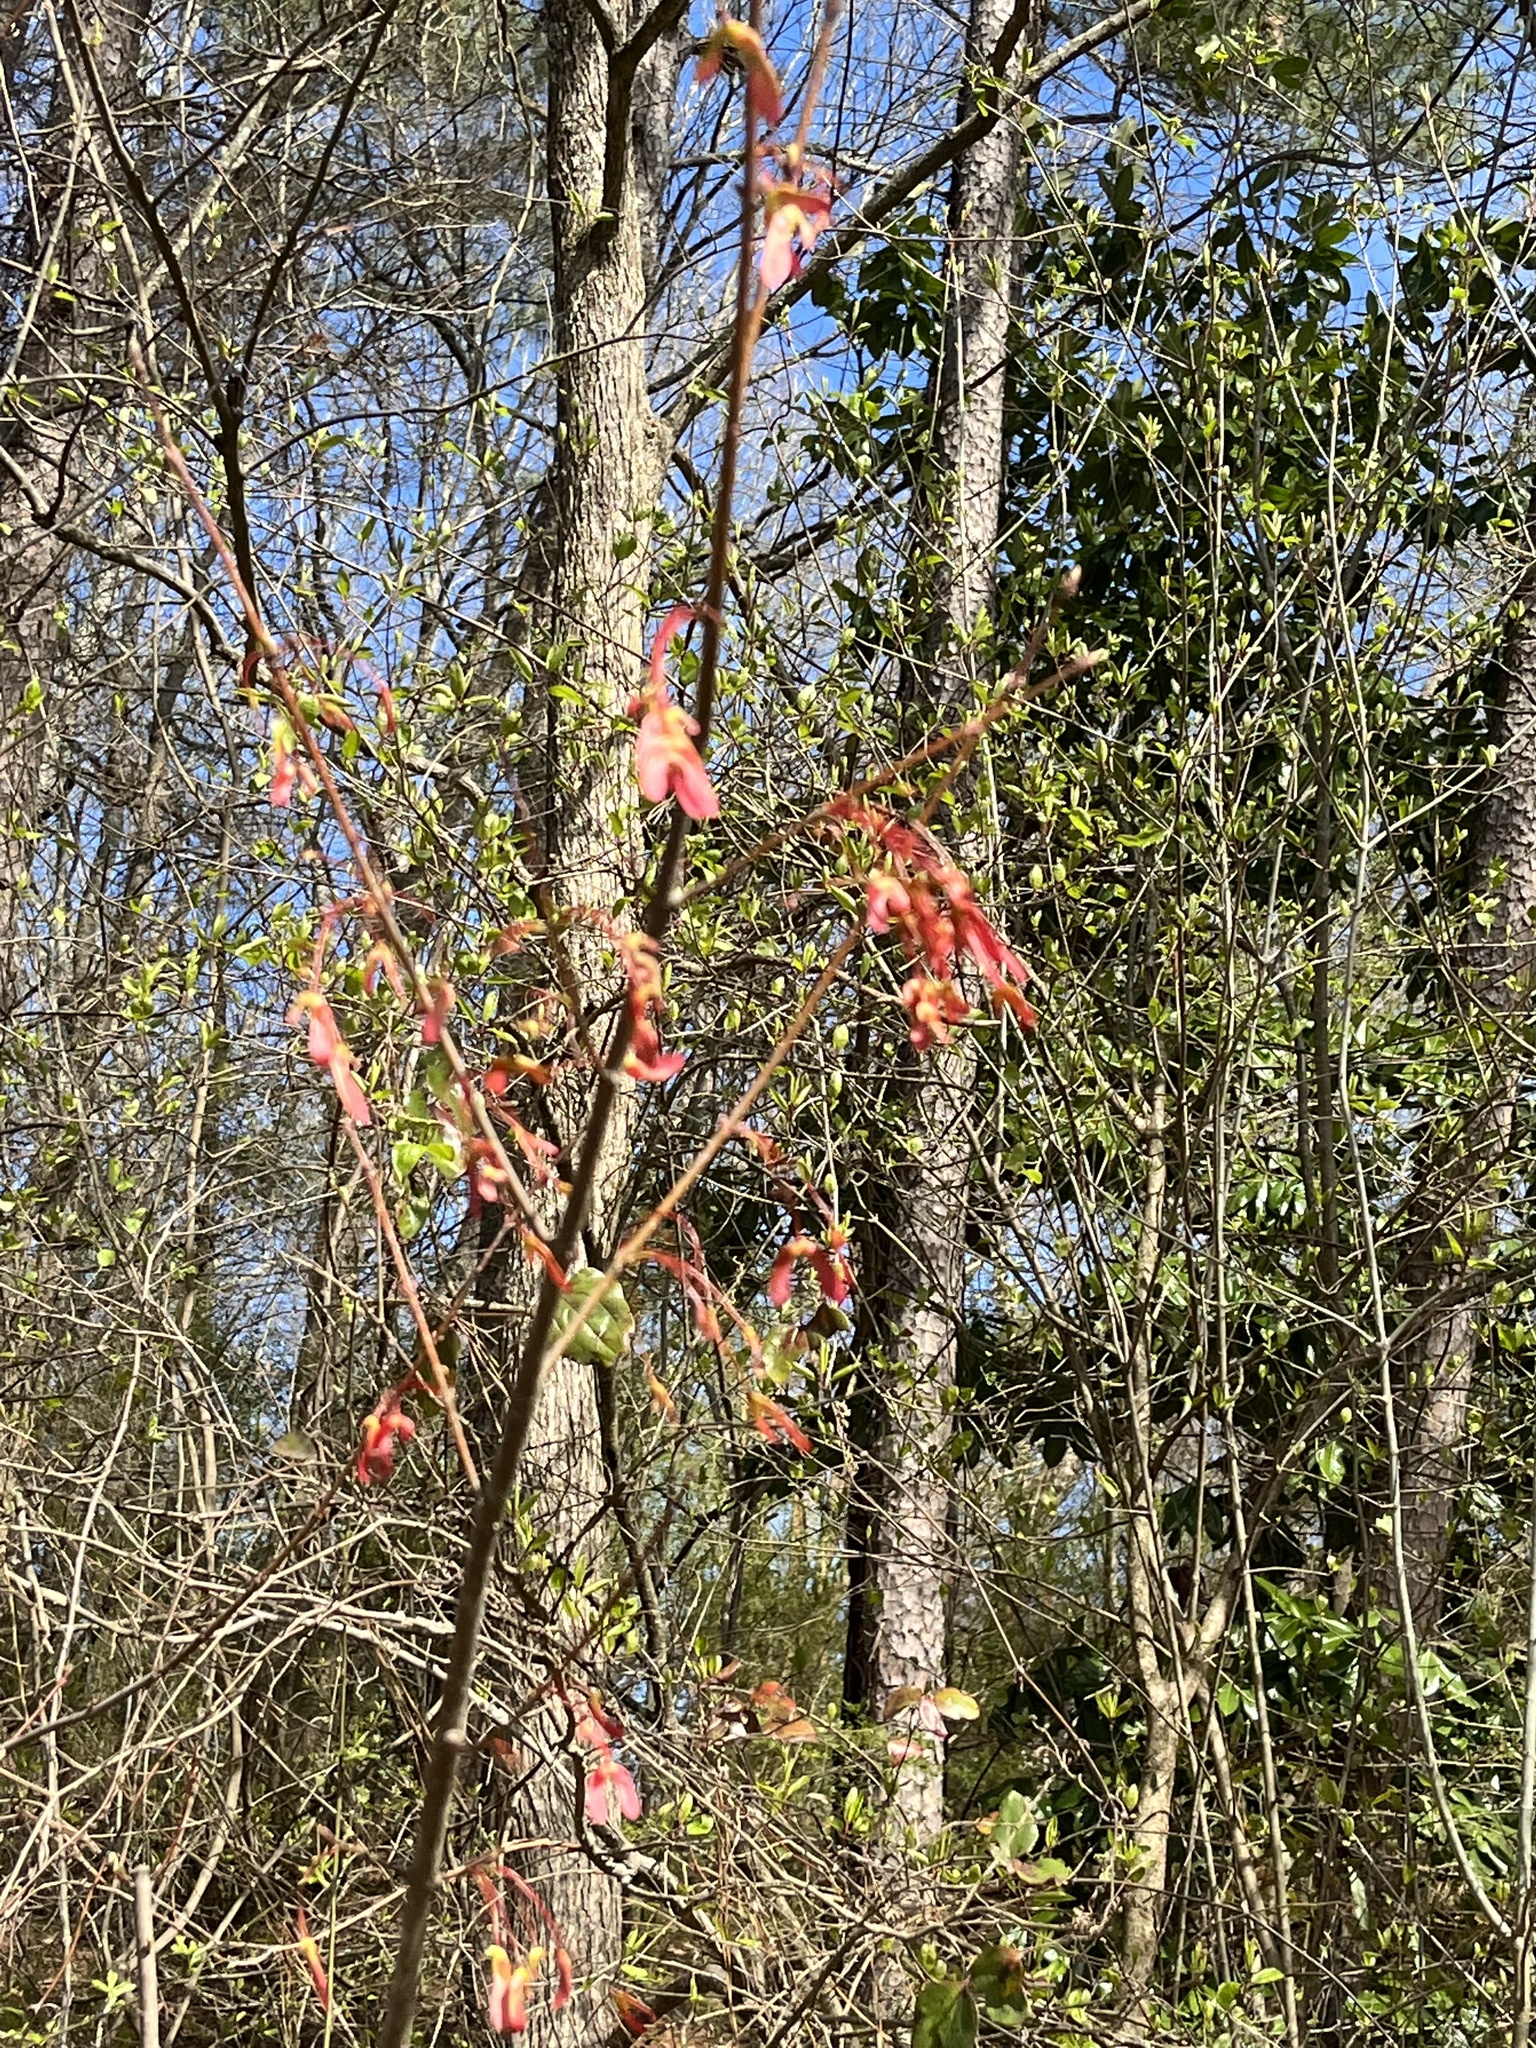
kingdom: Plantae
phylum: Tracheophyta
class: Magnoliopsida
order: Sapindales
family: Sapindaceae
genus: Acer
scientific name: Acer rubrum
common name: Red maple
